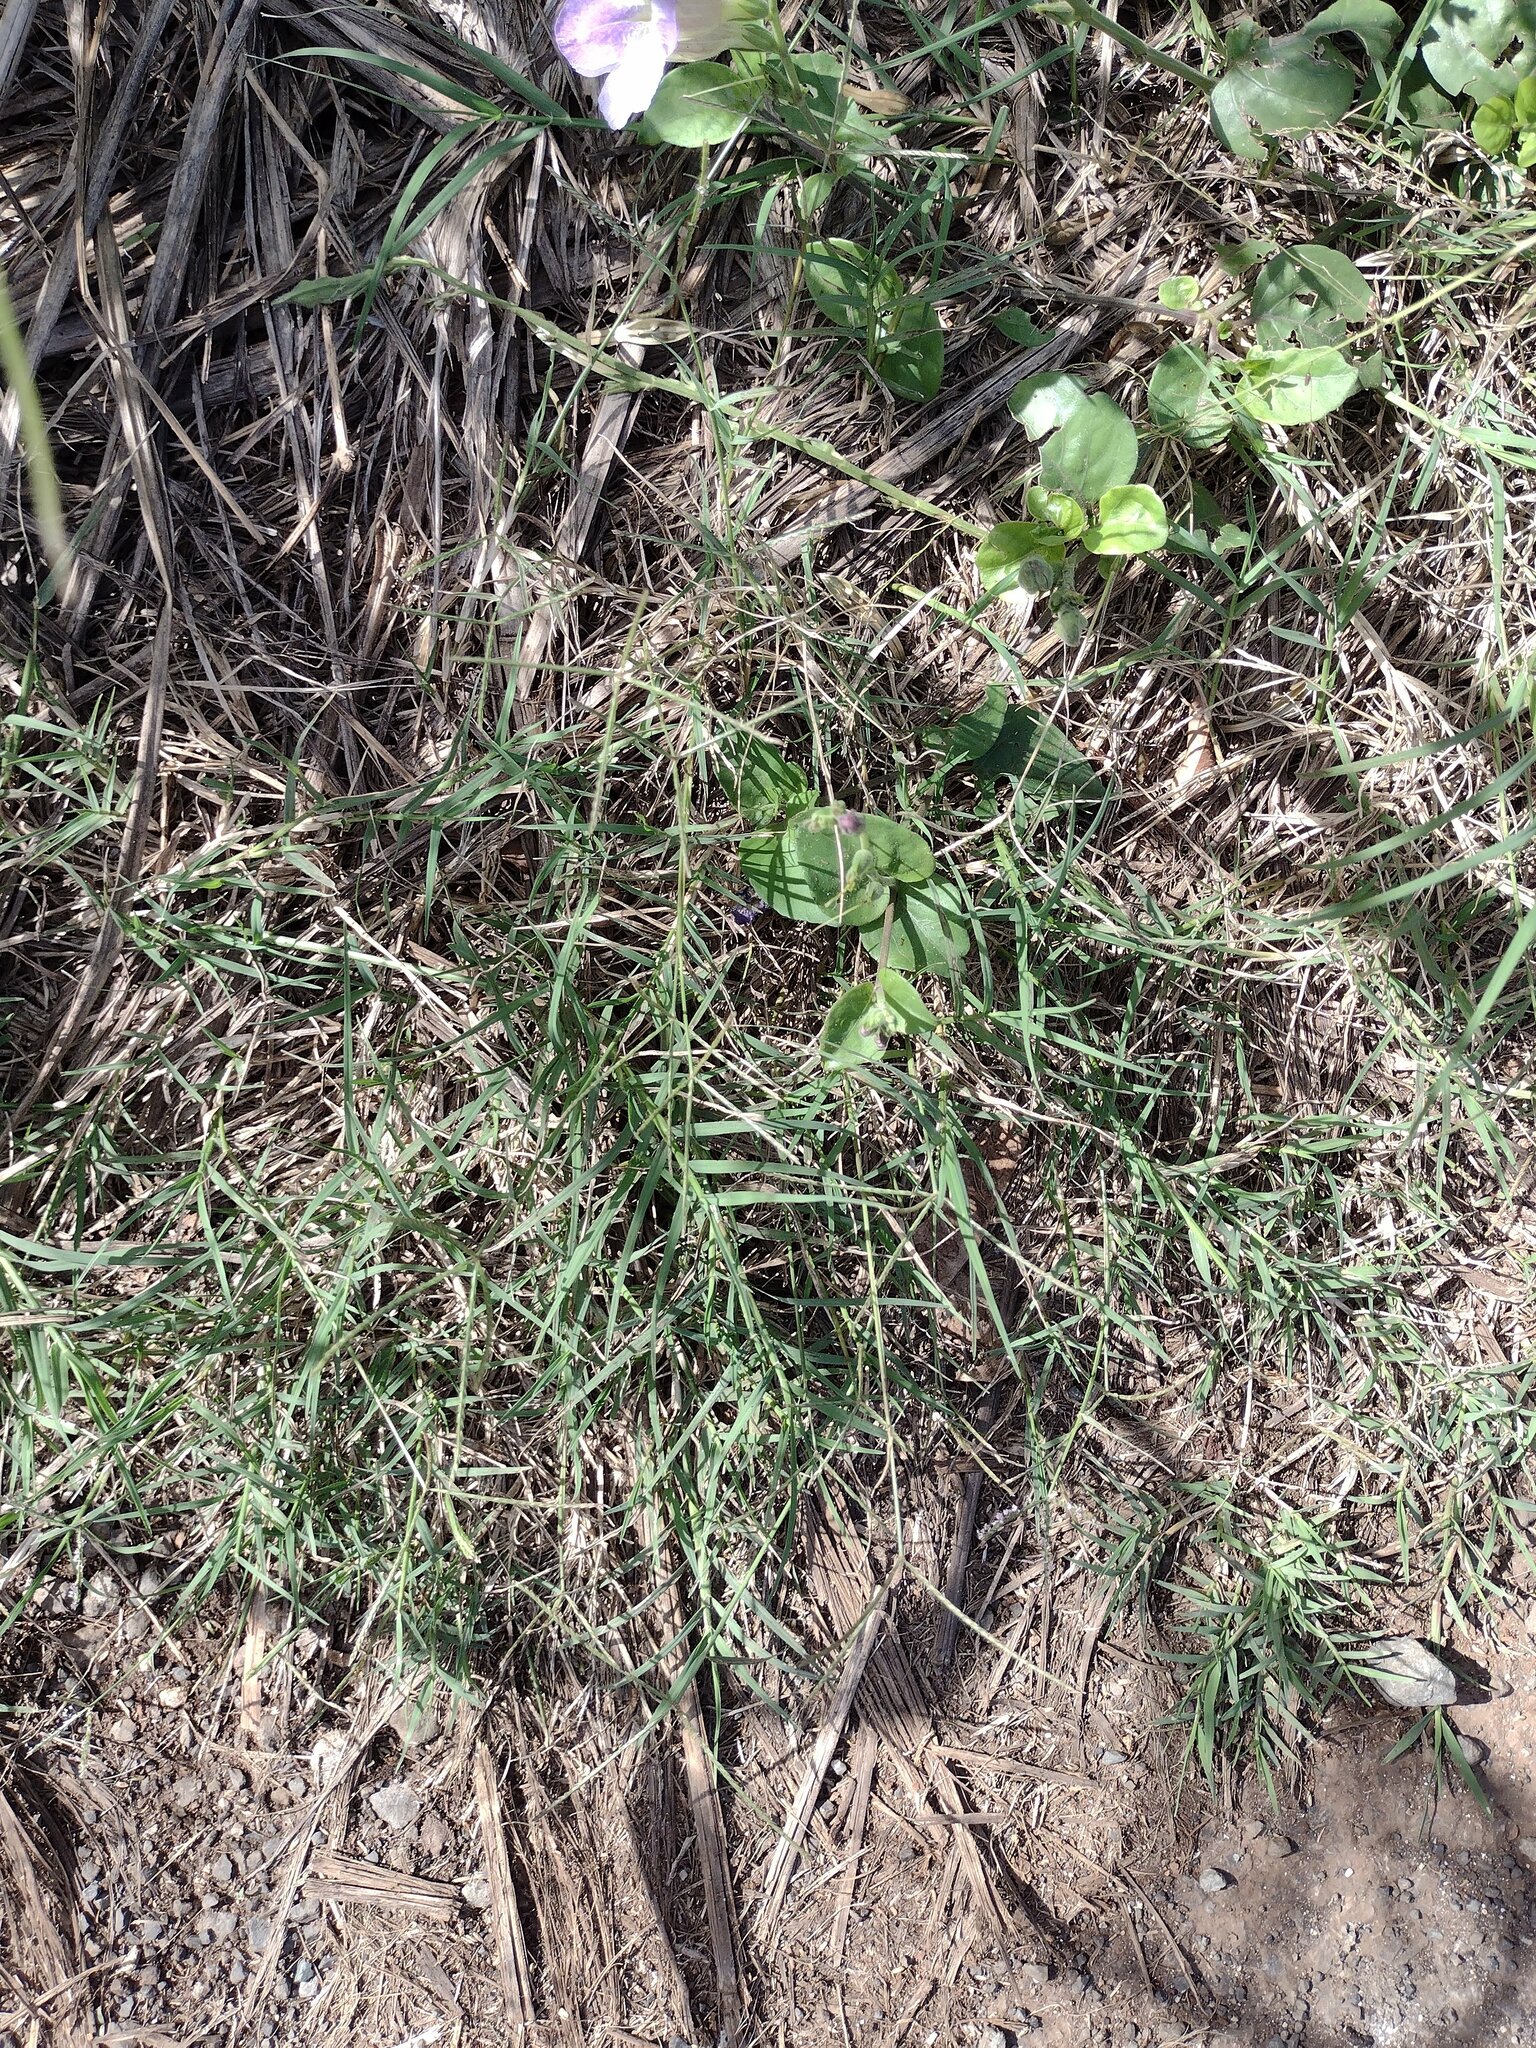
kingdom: Plantae
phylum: Tracheophyta
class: Liliopsida
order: Poales
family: Poaceae
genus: Cynodon
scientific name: Cynodon dactylon
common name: Bermuda grass
